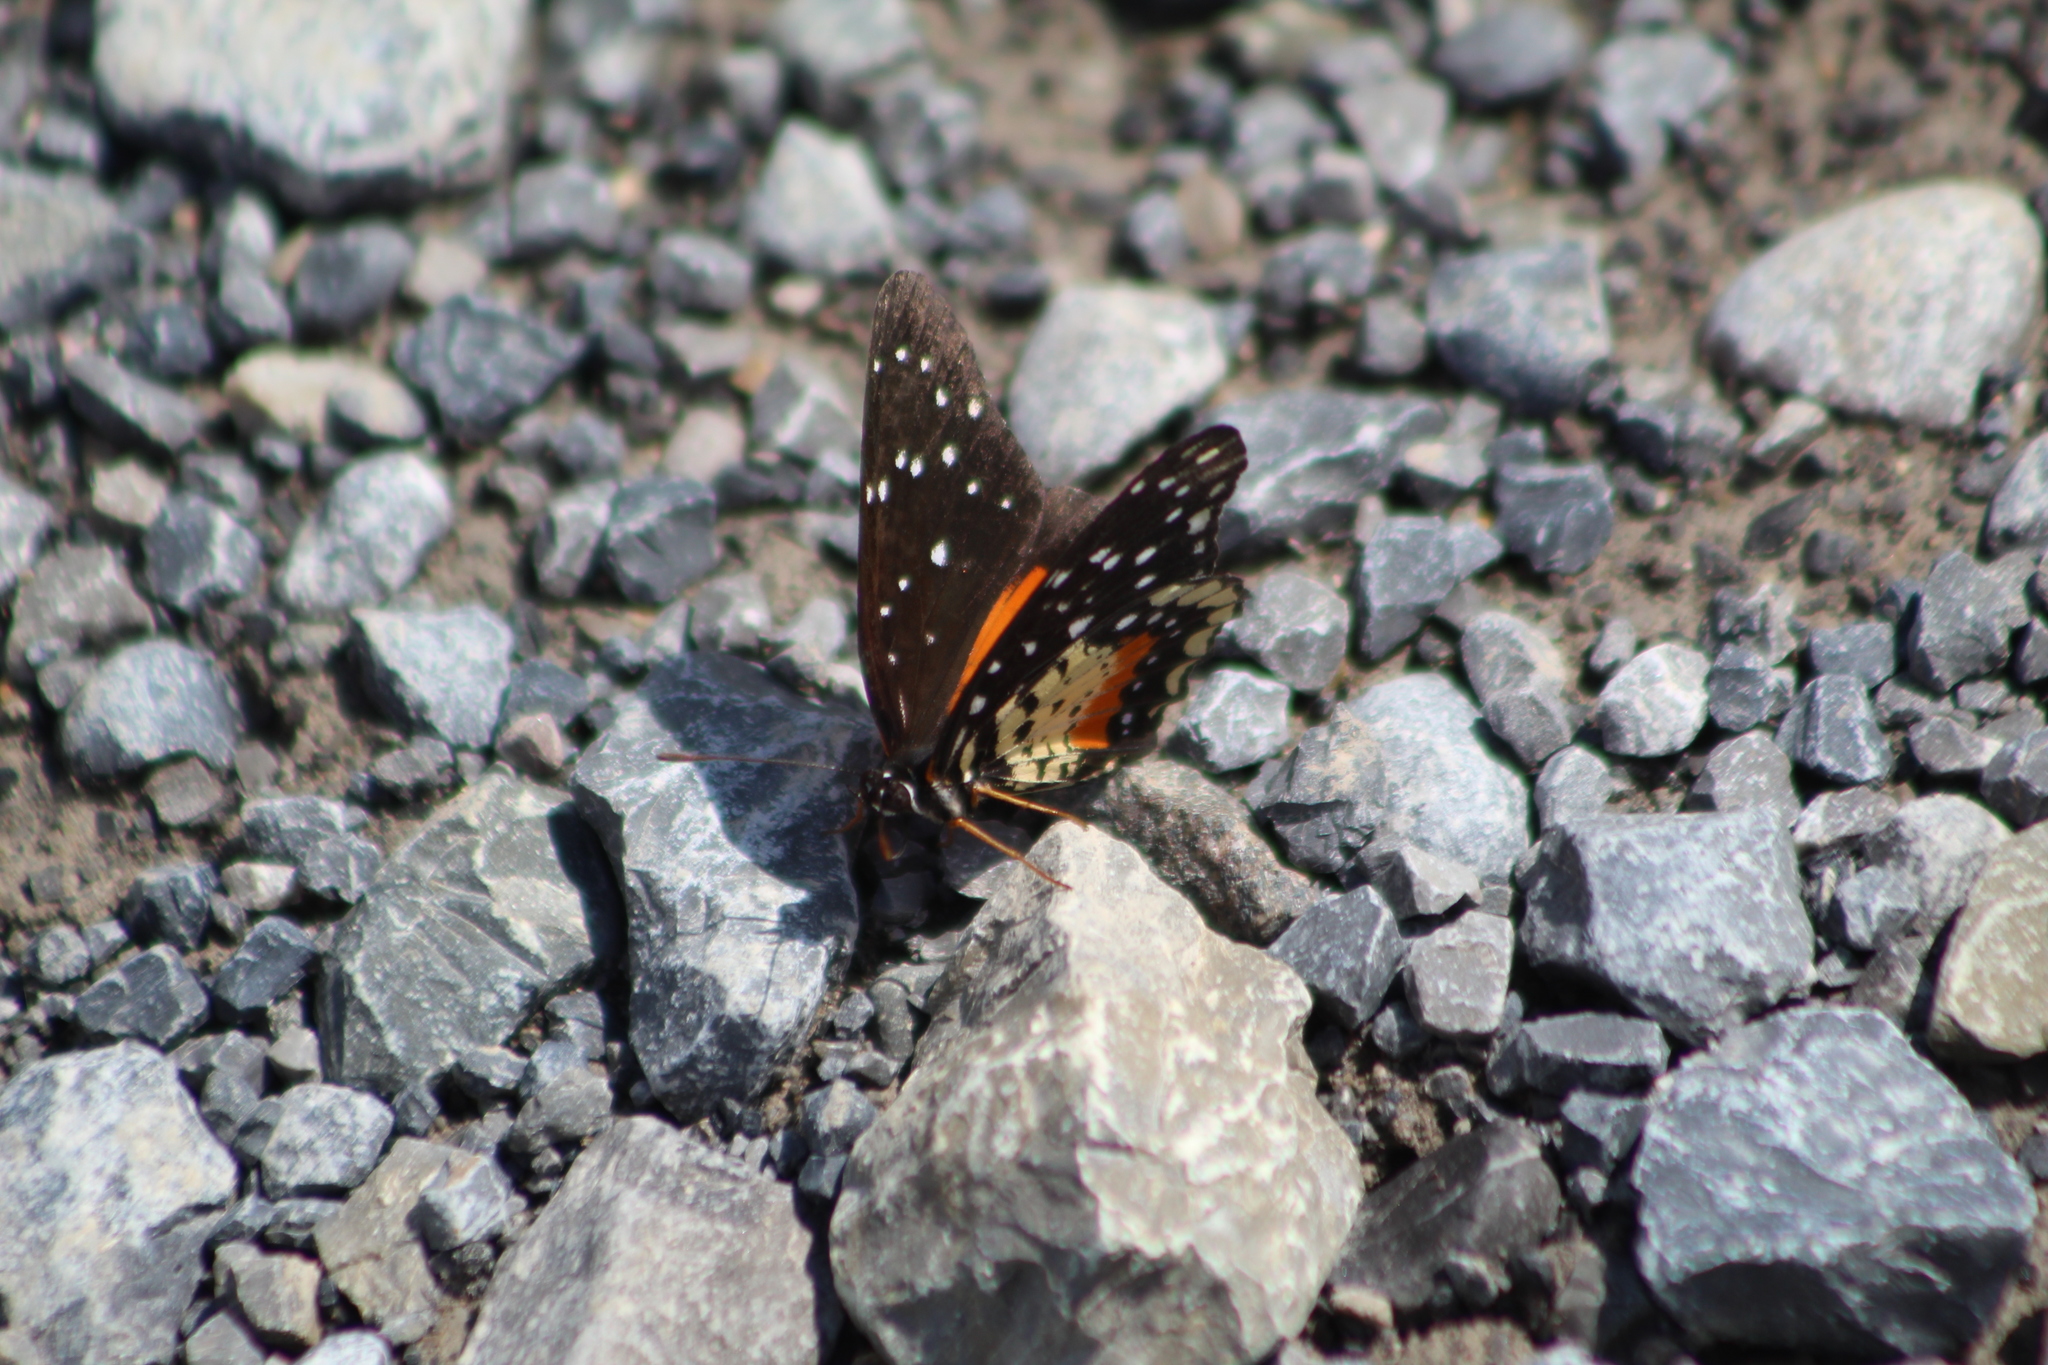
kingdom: Animalia
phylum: Arthropoda
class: Insecta
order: Lepidoptera
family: Nymphalidae
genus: Chlosyne
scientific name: Chlosyne janais
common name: Crimson patch
